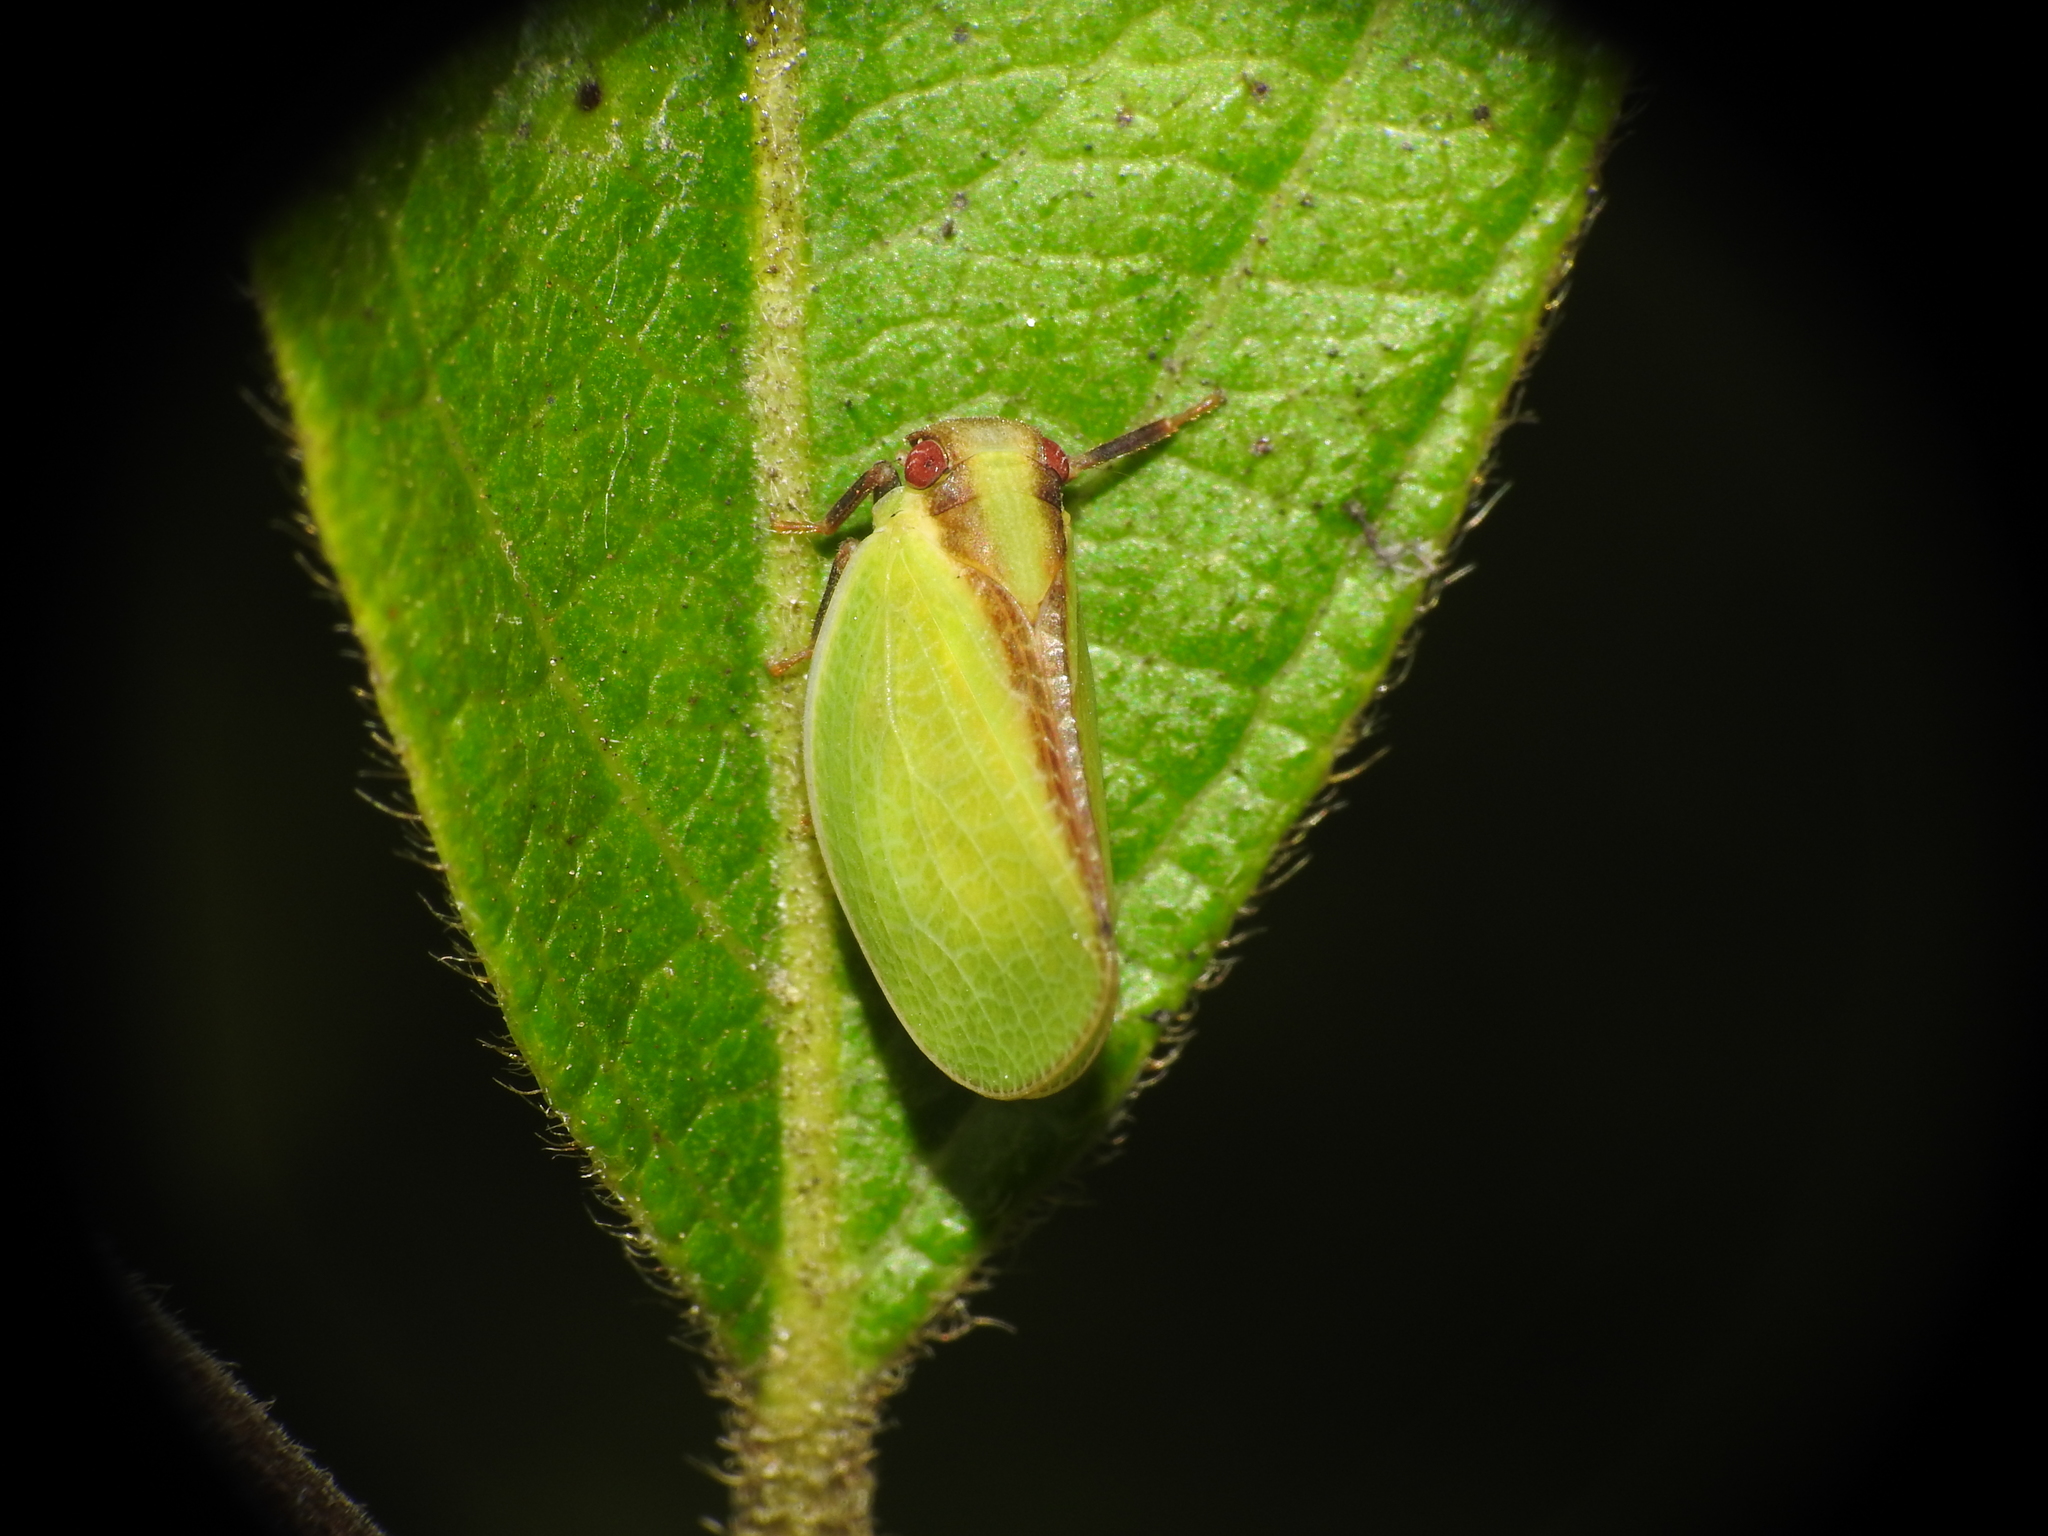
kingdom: Animalia
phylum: Arthropoda
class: Insecta
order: Hemiptera
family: Acanaloniidae
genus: Acanalonia
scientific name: Acanalonia bivittata
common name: Two-striped planthopper
